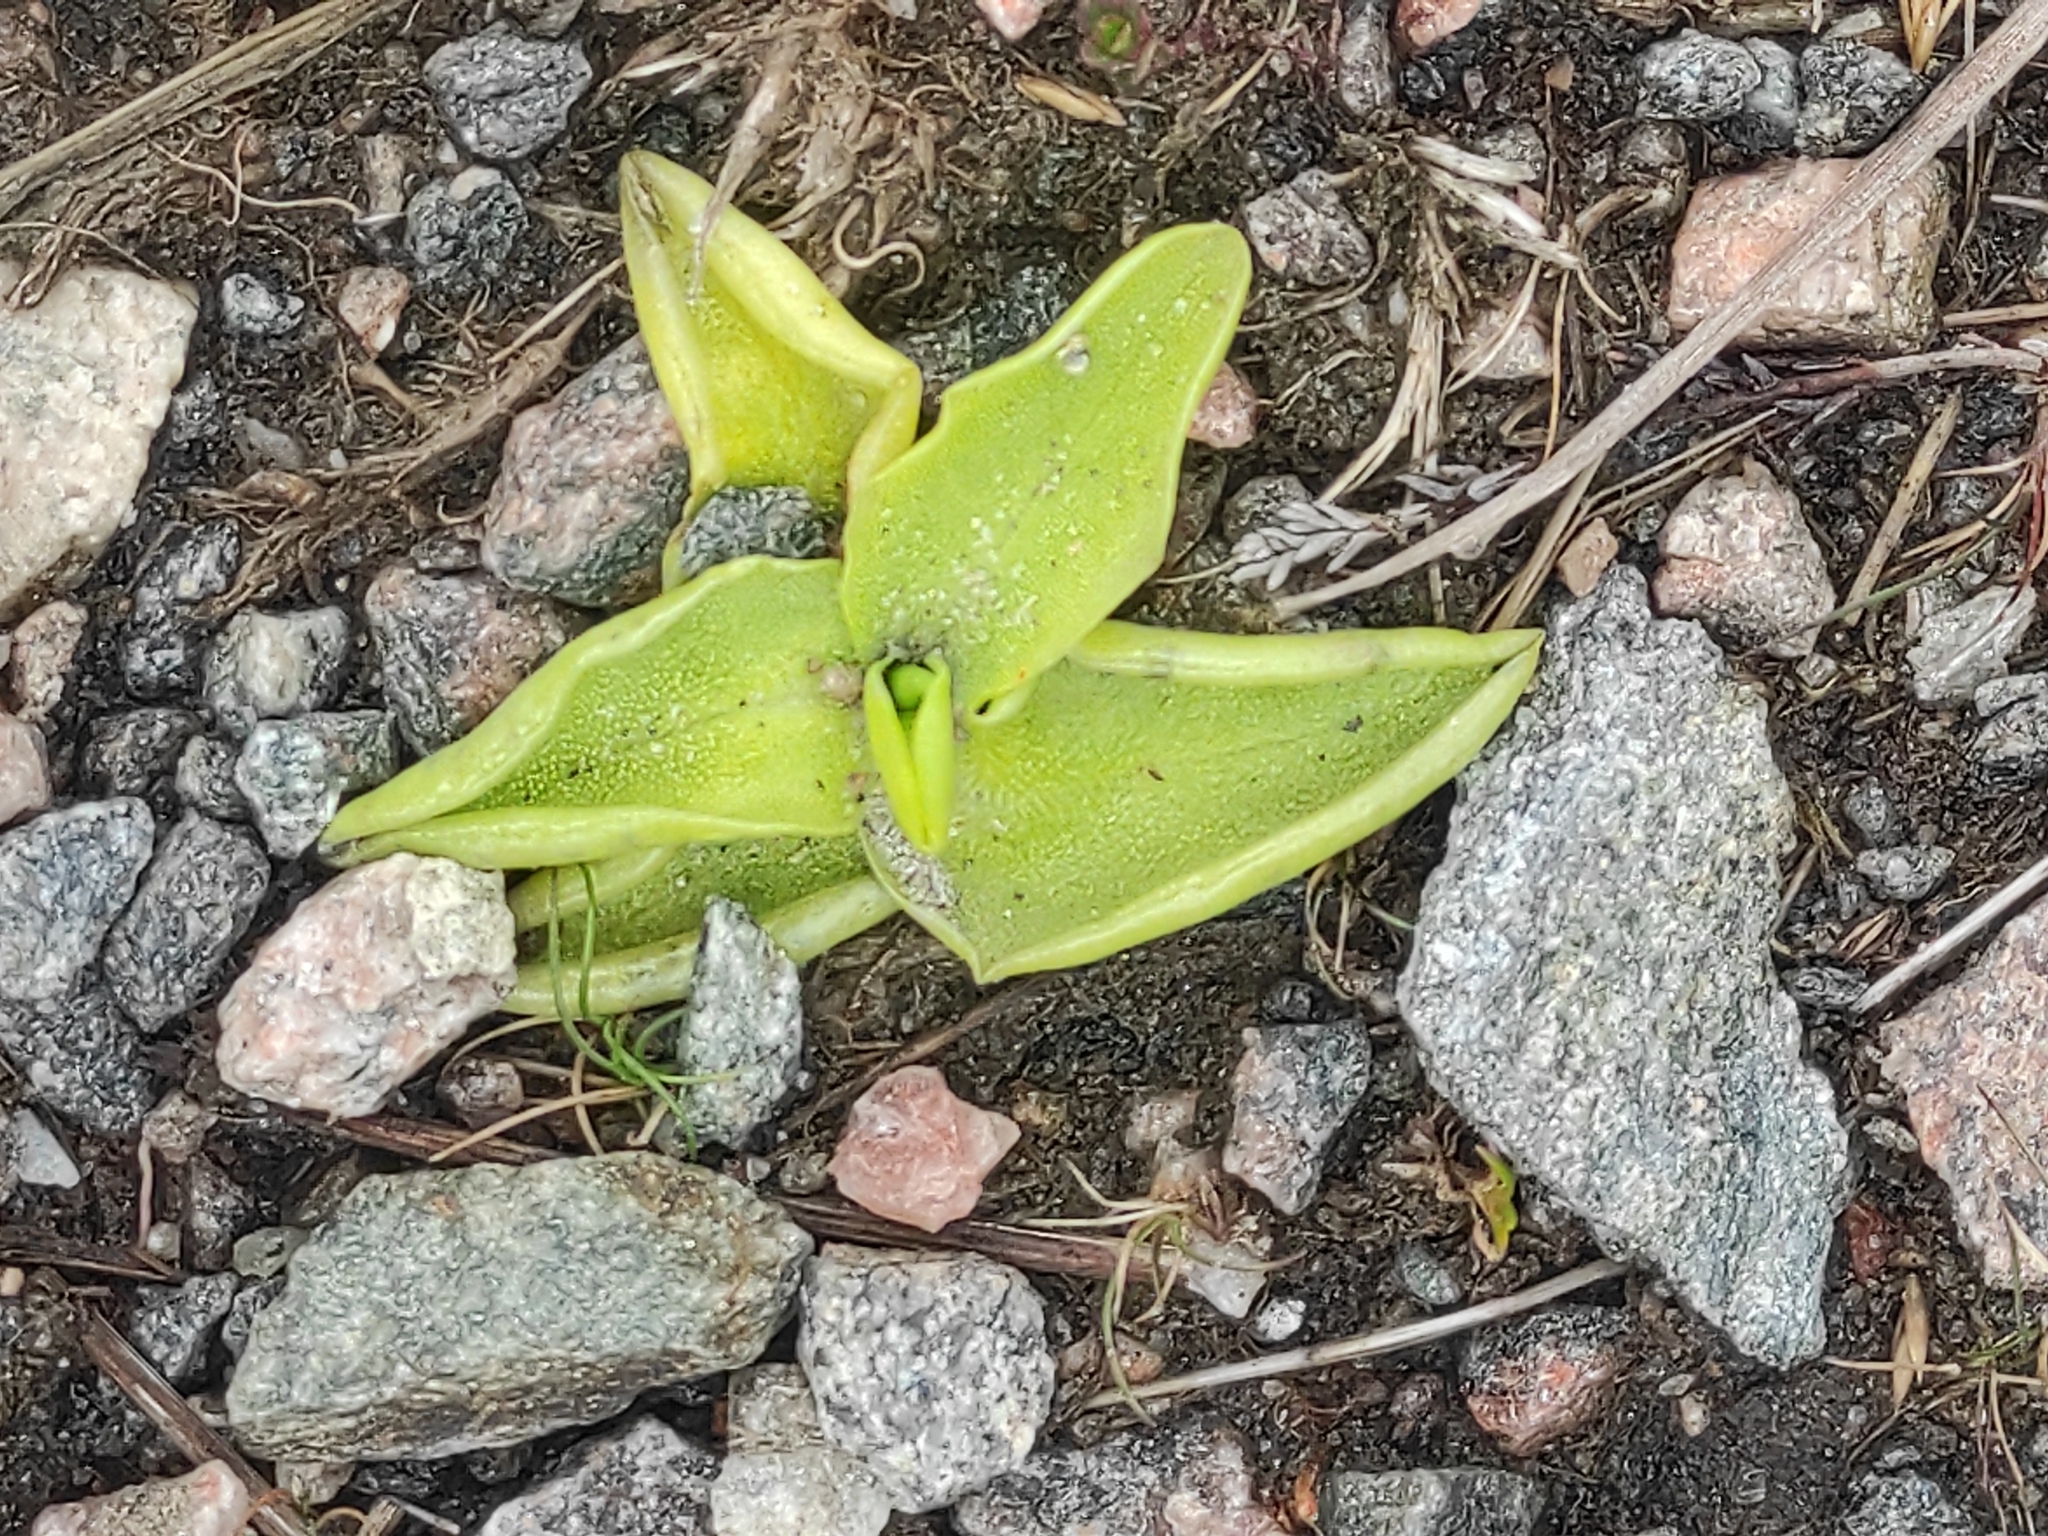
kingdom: Plantae
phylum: Tracheophyta
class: Magnoliopsida
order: Lamiales
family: Lentibulariaceae
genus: Pinguicula
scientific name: Pinguicula vulgaris
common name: Common butterwort
